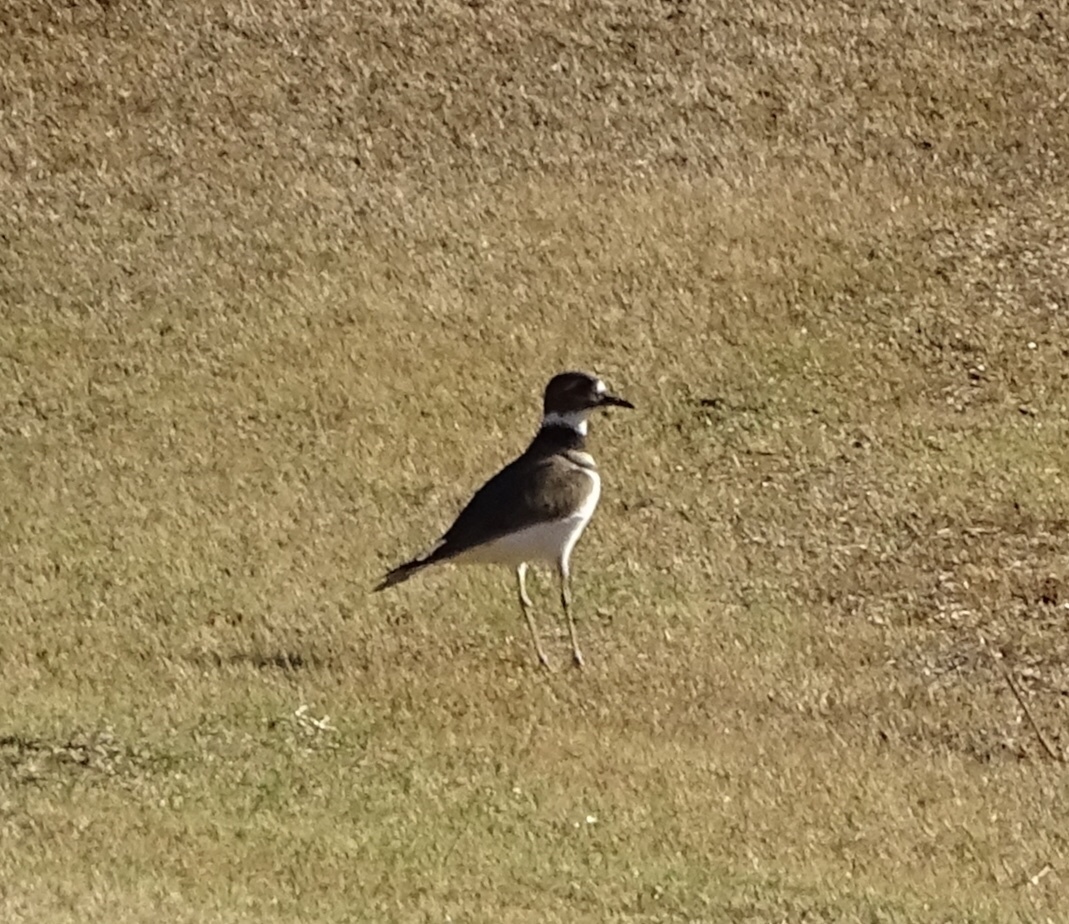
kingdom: Animalia
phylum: Chordata
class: Aves
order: Charadriiformes
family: Charadriidae
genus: Charadrius
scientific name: Charadrius vociferus
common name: Killdeer
